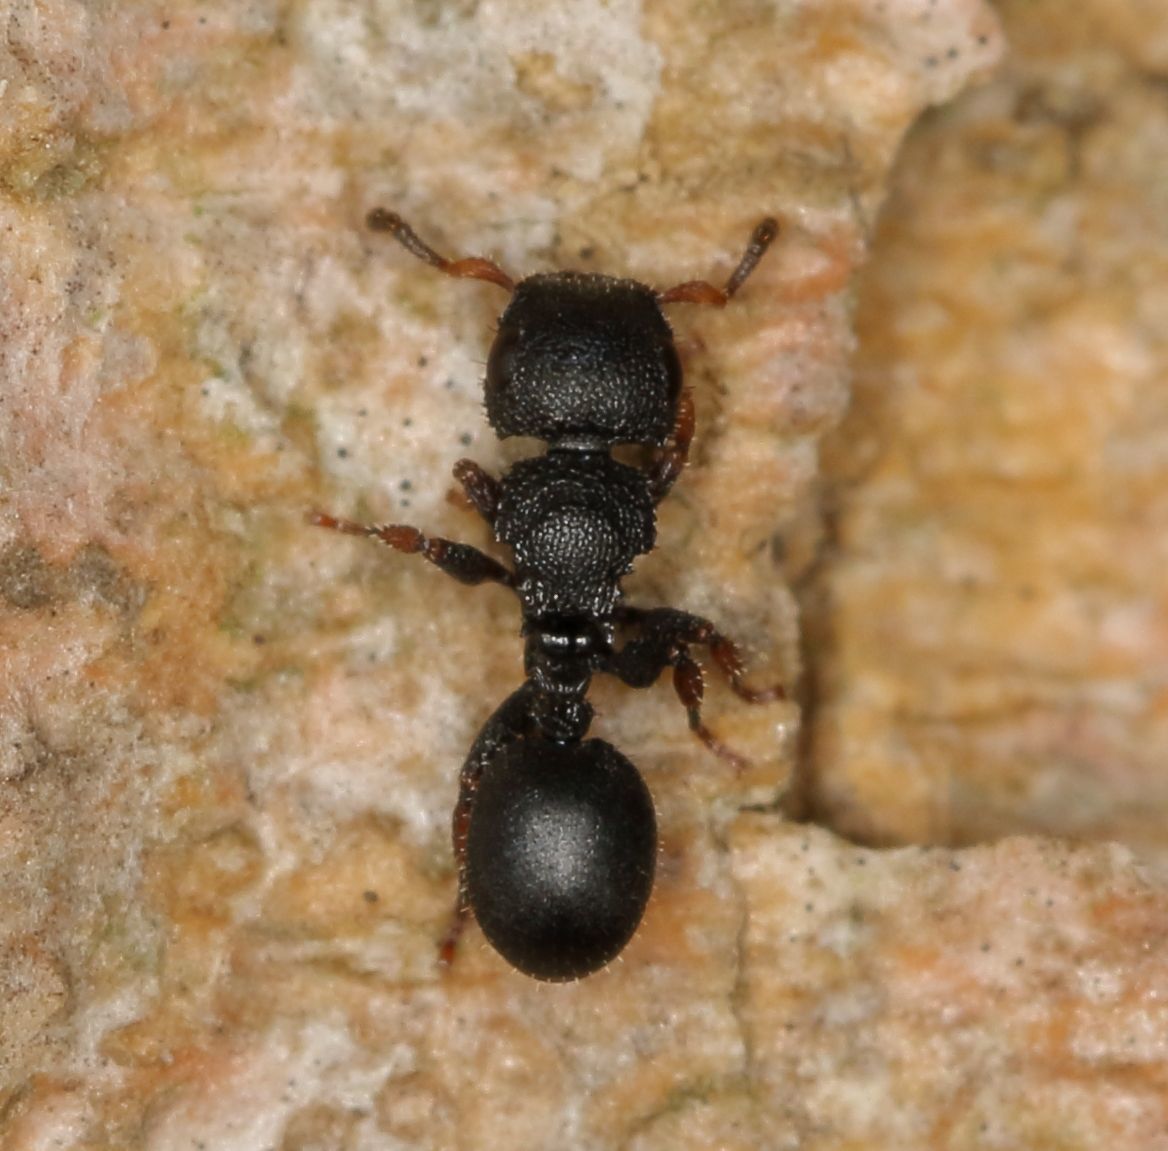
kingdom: Animalia
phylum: Arthropoda
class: Insecta
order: Hymenoptera
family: Formicidae
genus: Cataulacus
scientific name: Cataulacus intrudens
